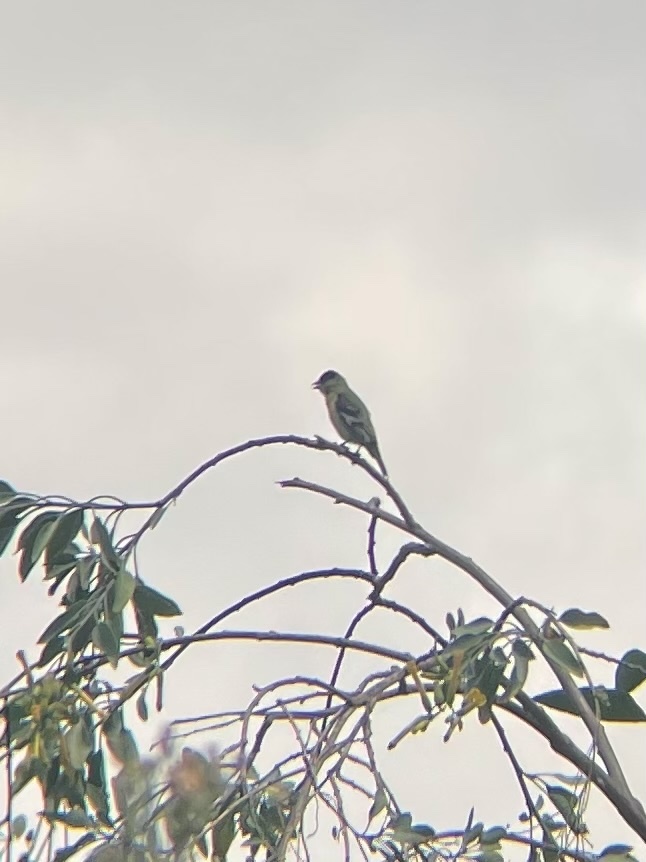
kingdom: Animalia
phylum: Chordata
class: Aves
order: Passeriformes
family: Fringillidae
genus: Spinus
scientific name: Spinus psaltria
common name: Lesser goldfinch
